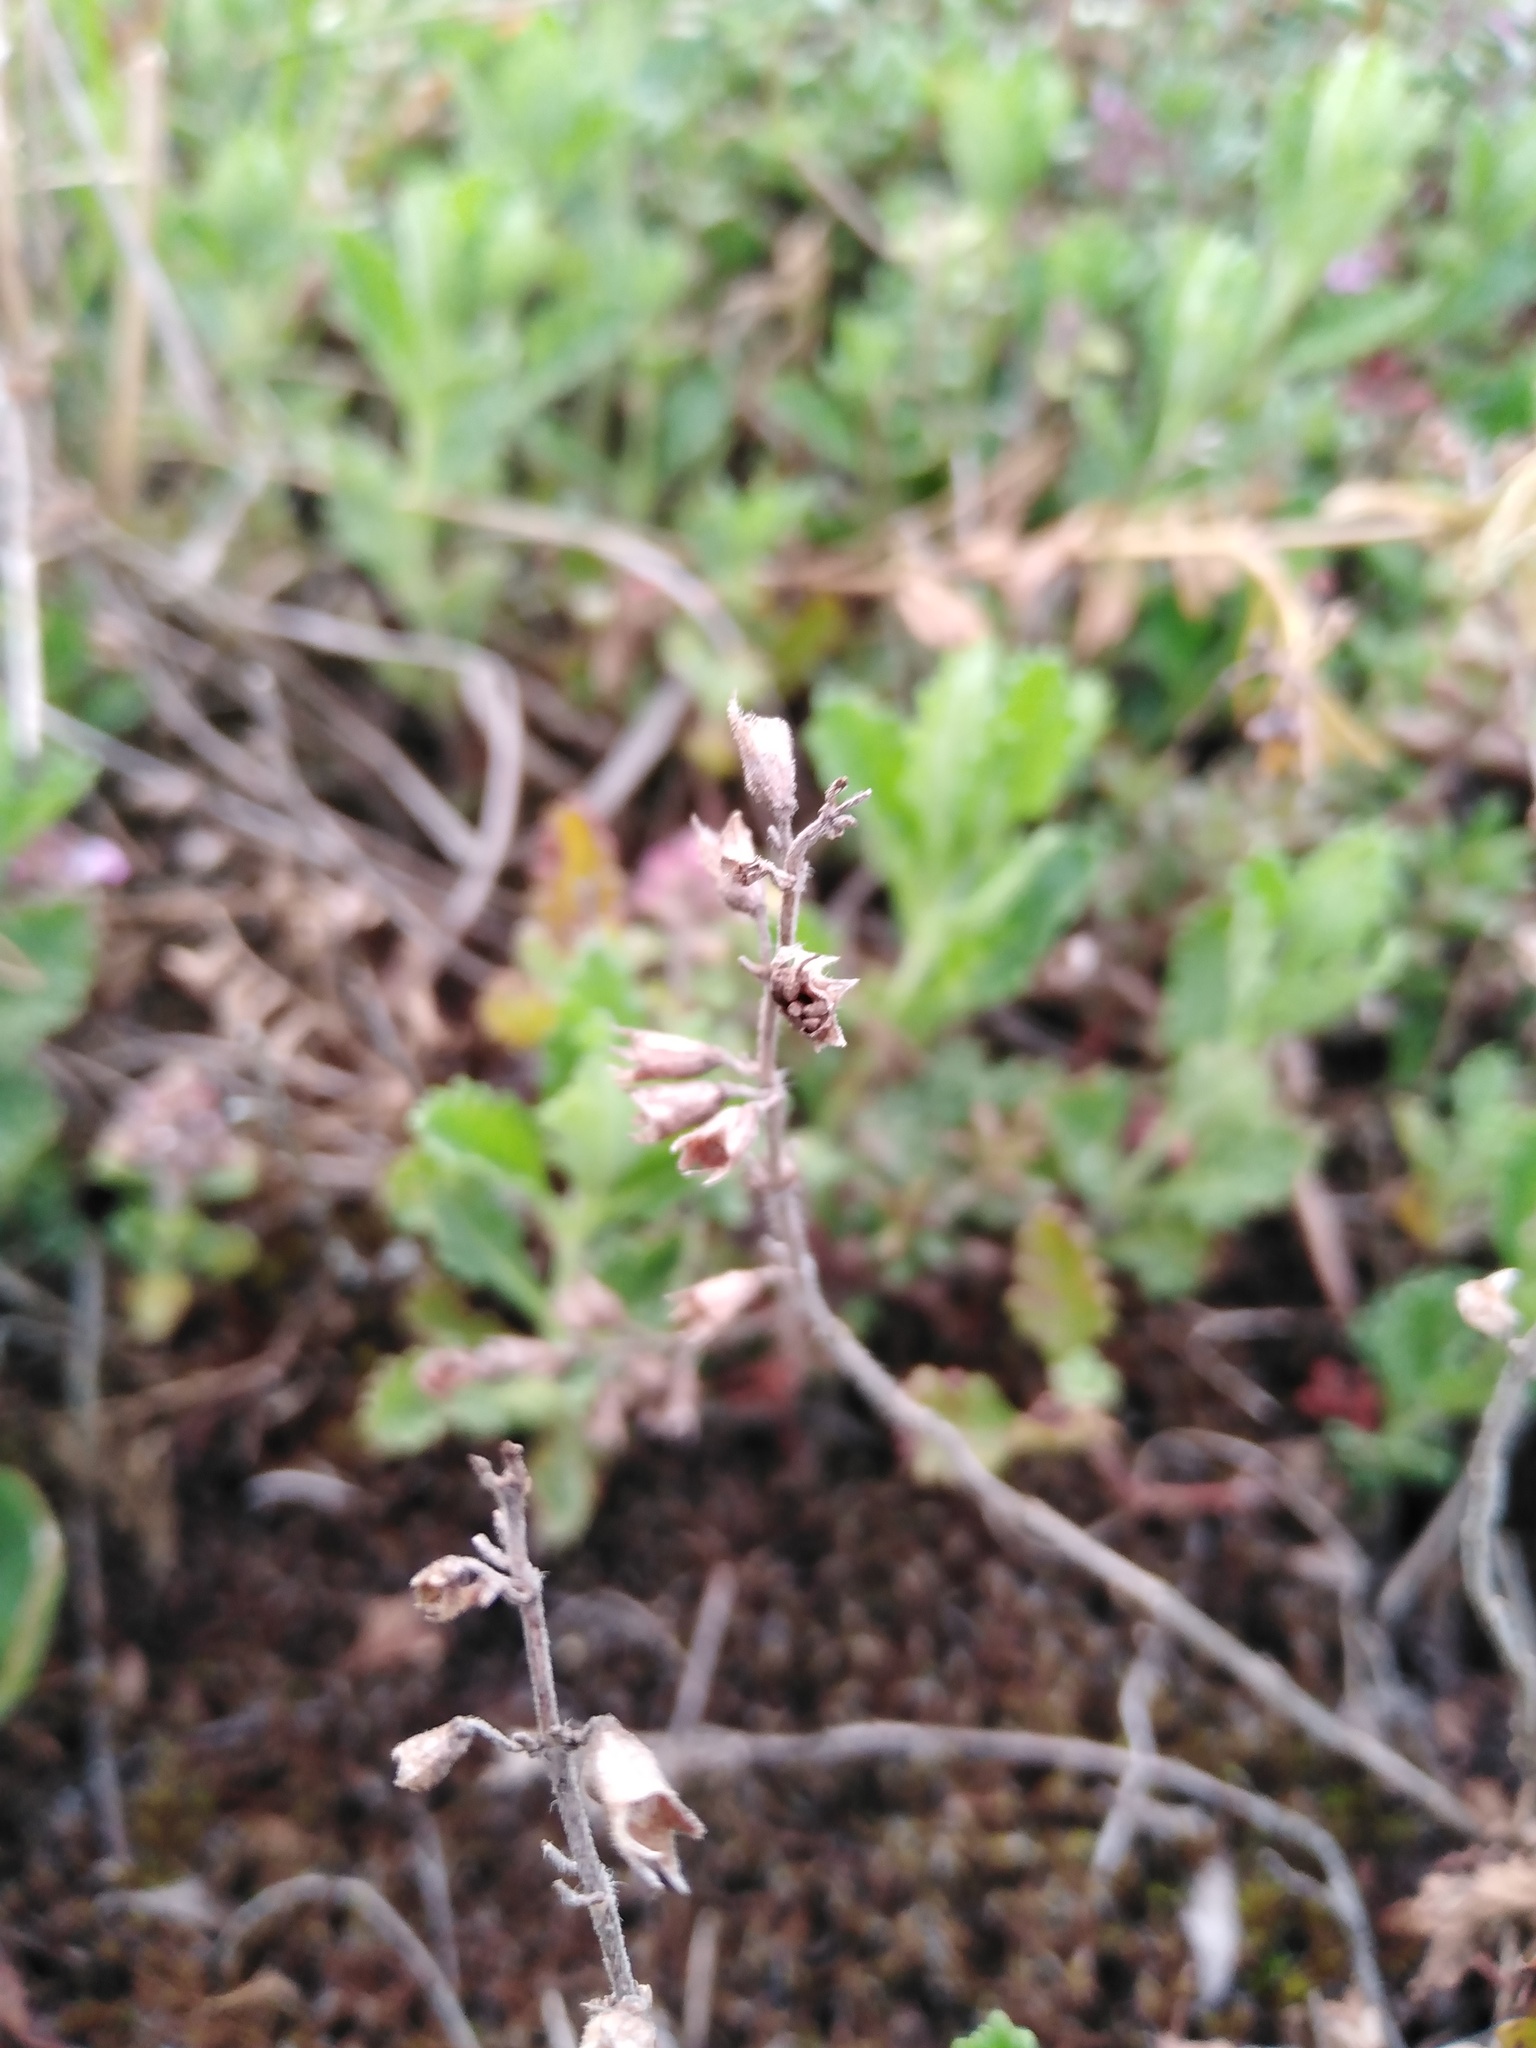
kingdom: Plantae
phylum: Tracheophyta
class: Magnoliopsida
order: Lamiales
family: Lamiaceae
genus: Teucrium
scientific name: Teucrium chamaedrys
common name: Wall germander
